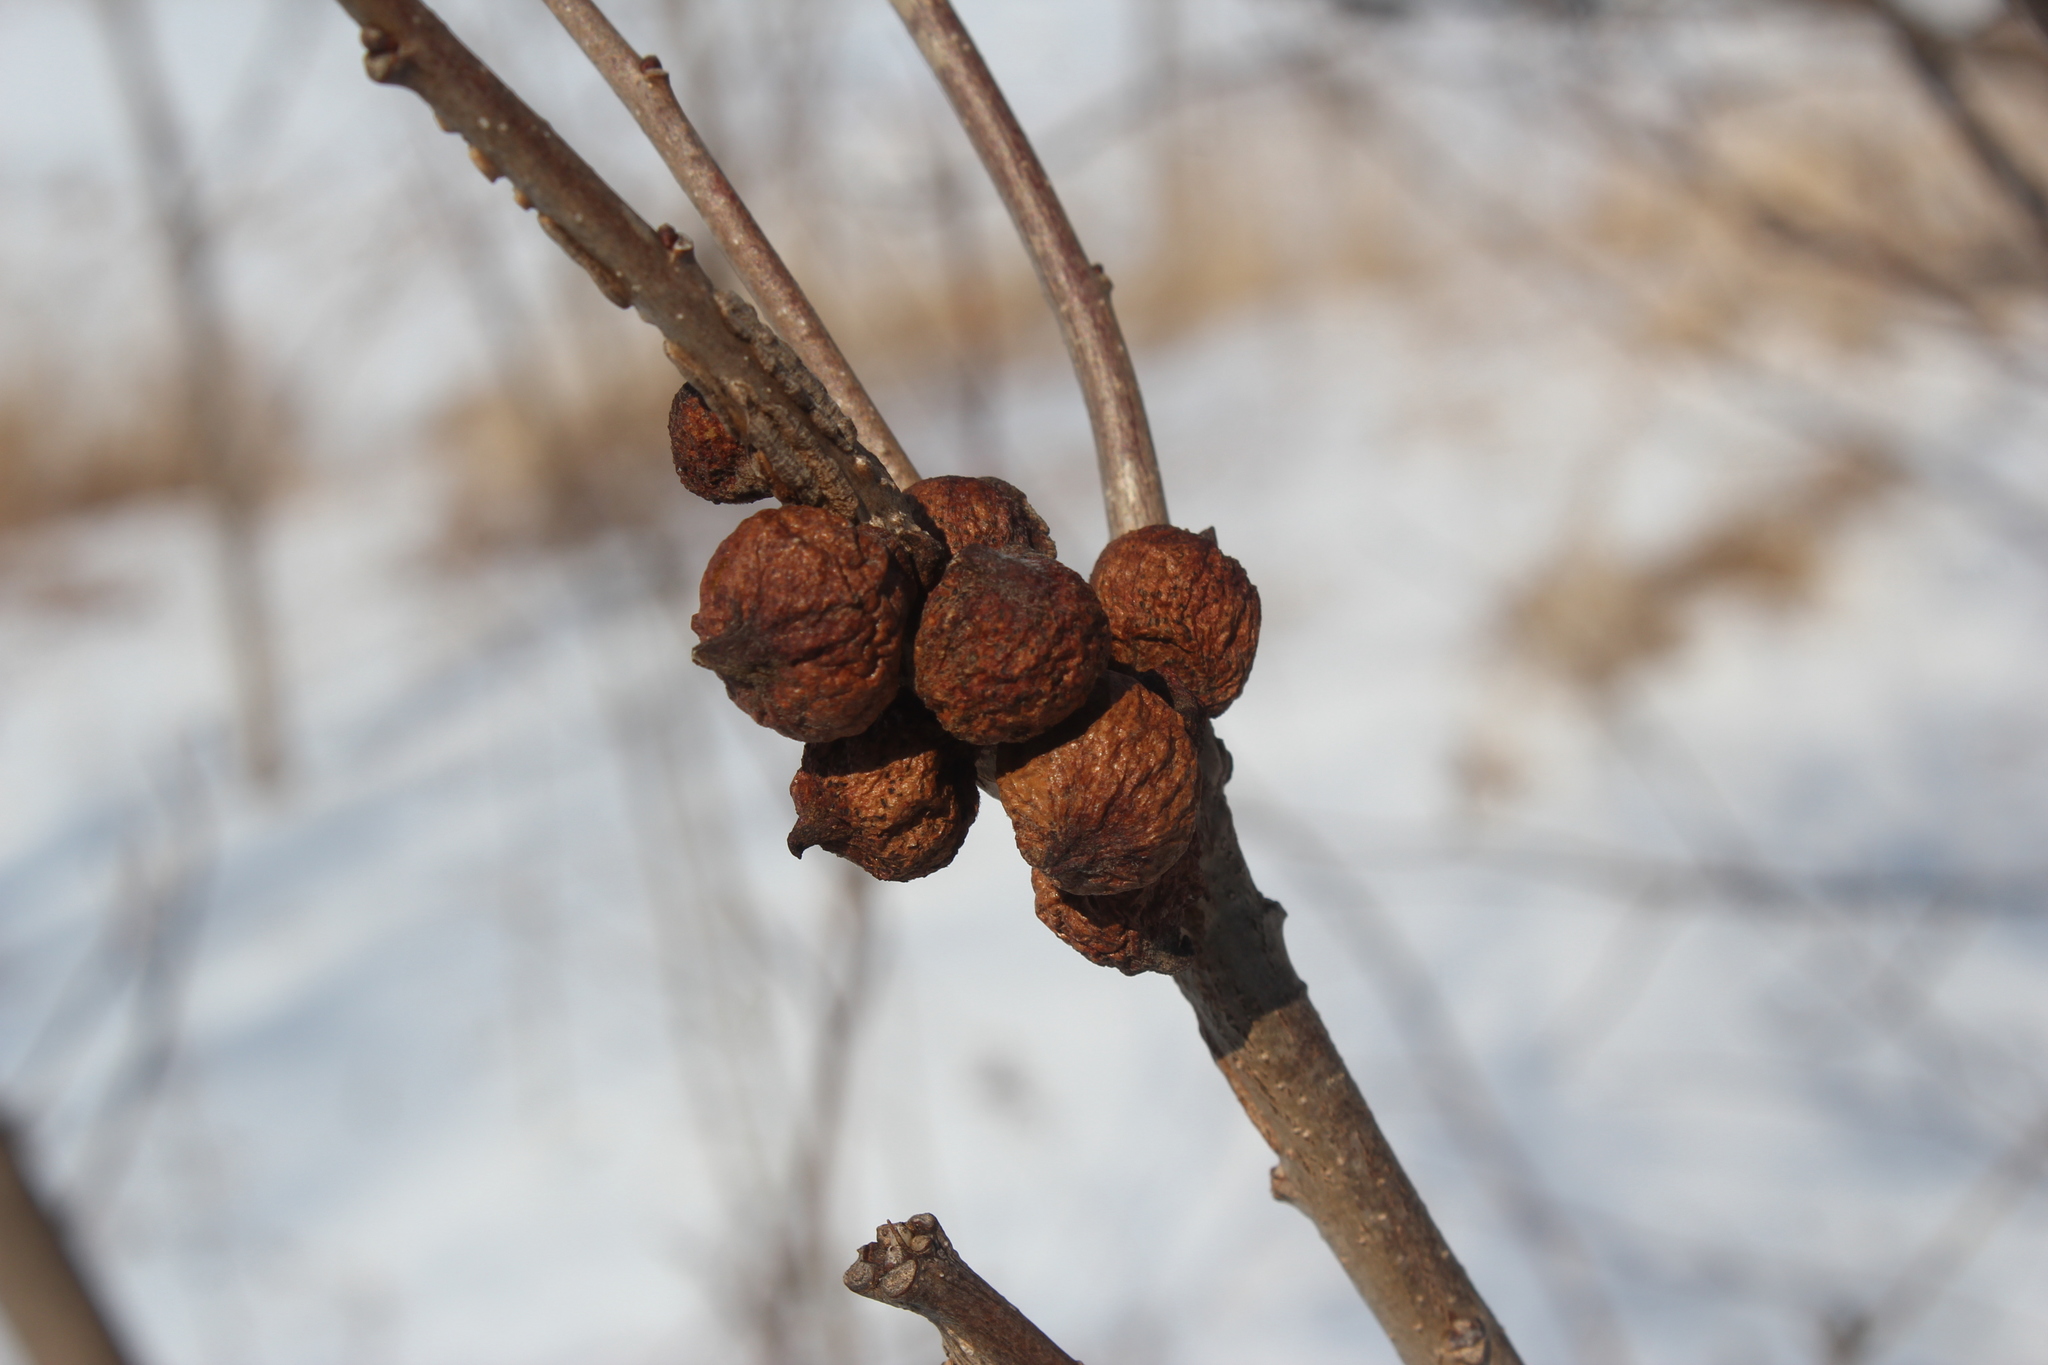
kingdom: Animalia
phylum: Arthropoda
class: Insecta
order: Hymenoptera
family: Cynipidae
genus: Disholcaspis
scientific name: Disholcaspis
